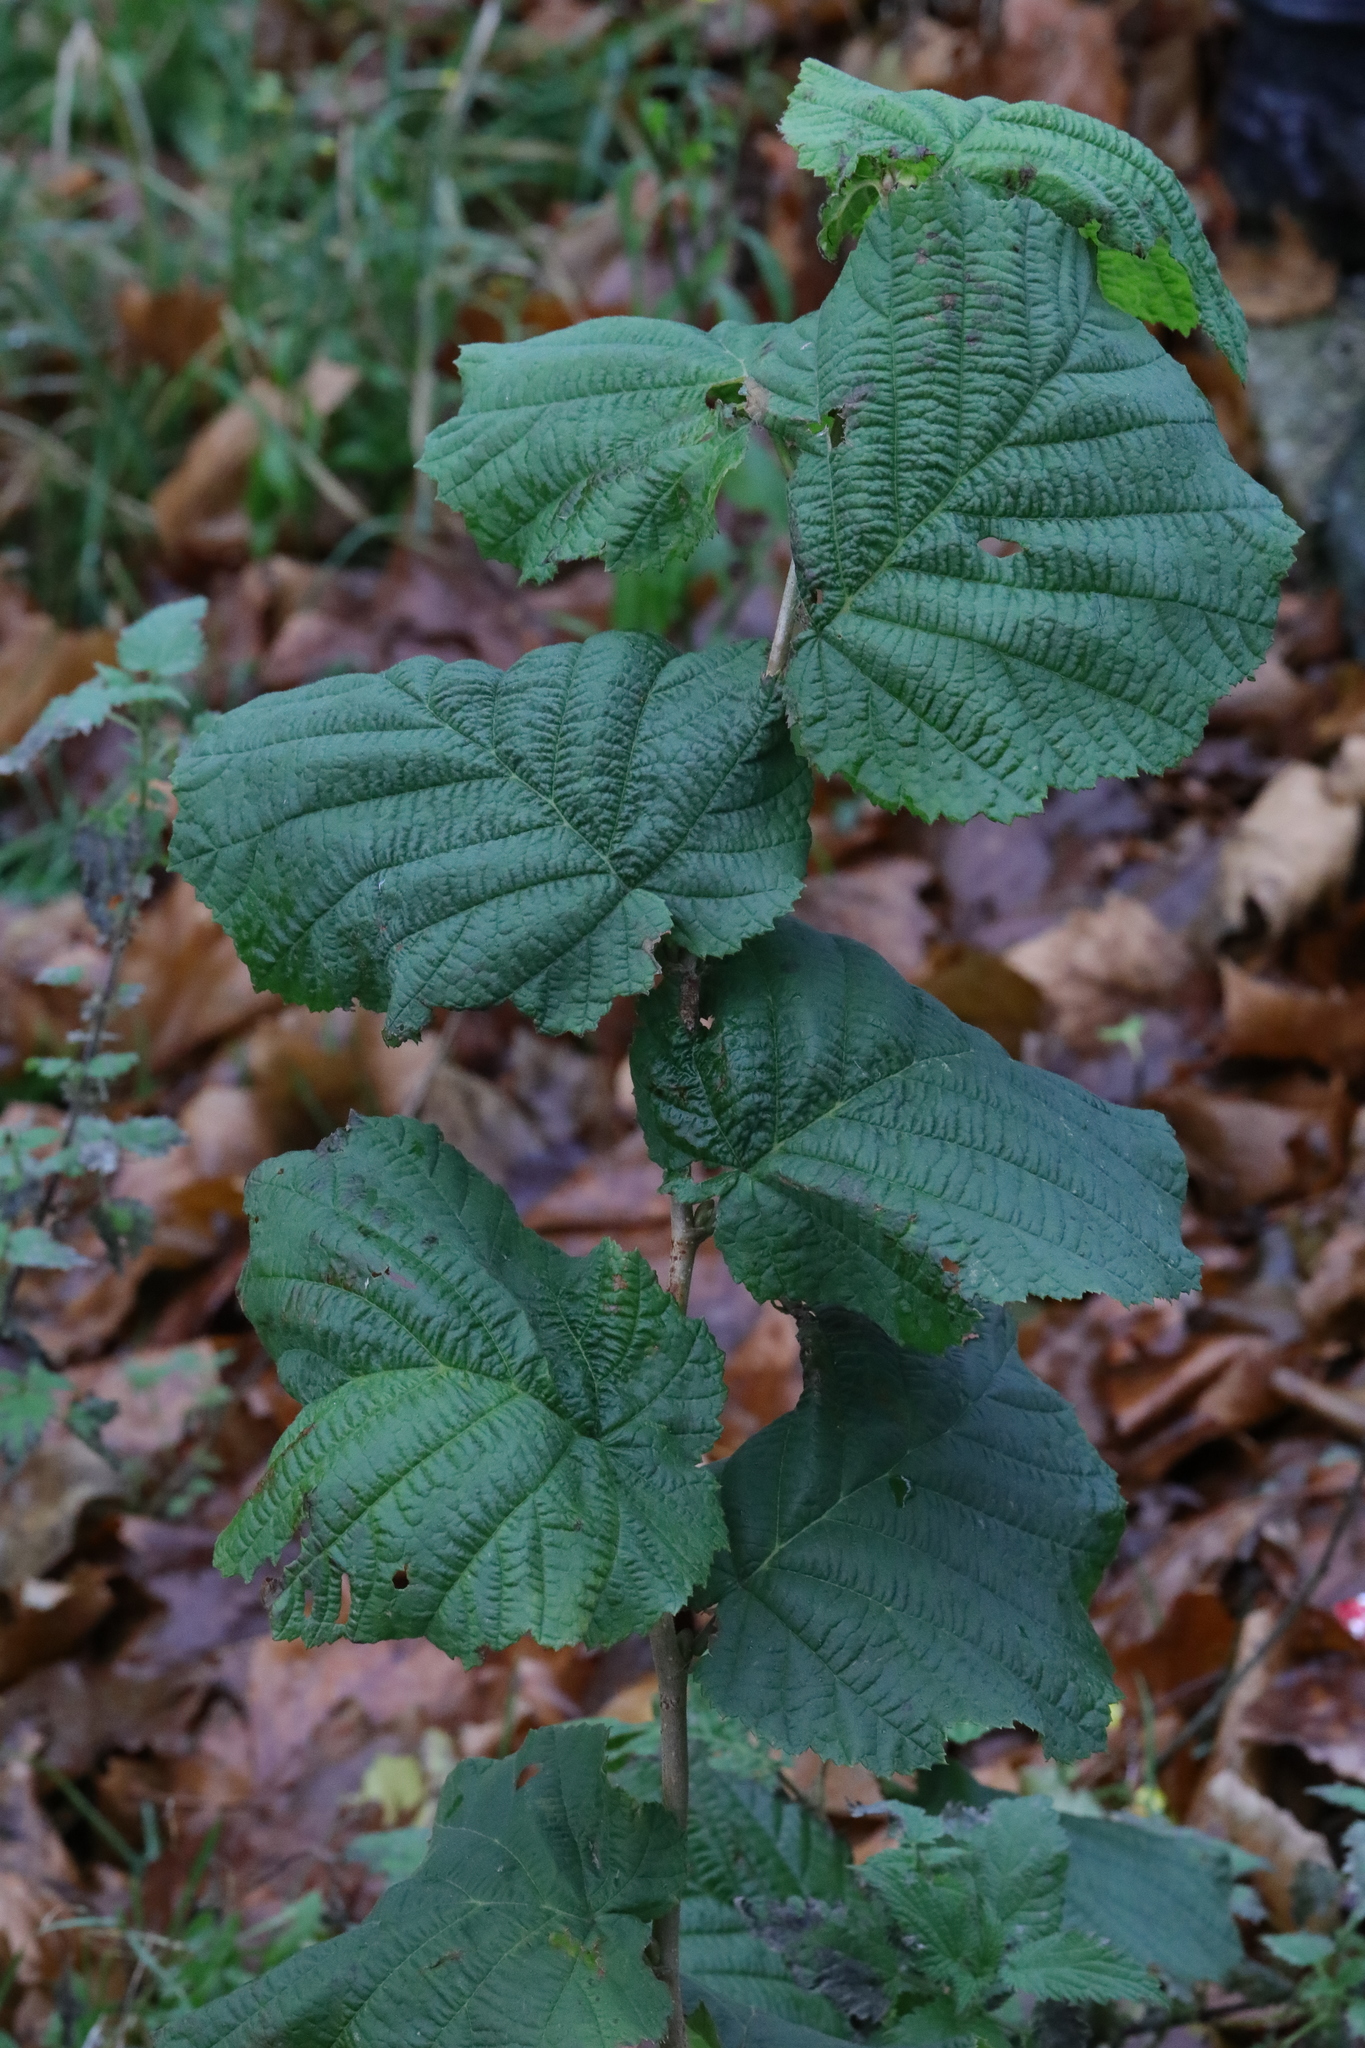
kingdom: Plantae
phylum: Tracheophyta
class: Magnoliopsida
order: Fagales
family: Betulaceae
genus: Corylus
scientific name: Corylus avellana
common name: European hazel
